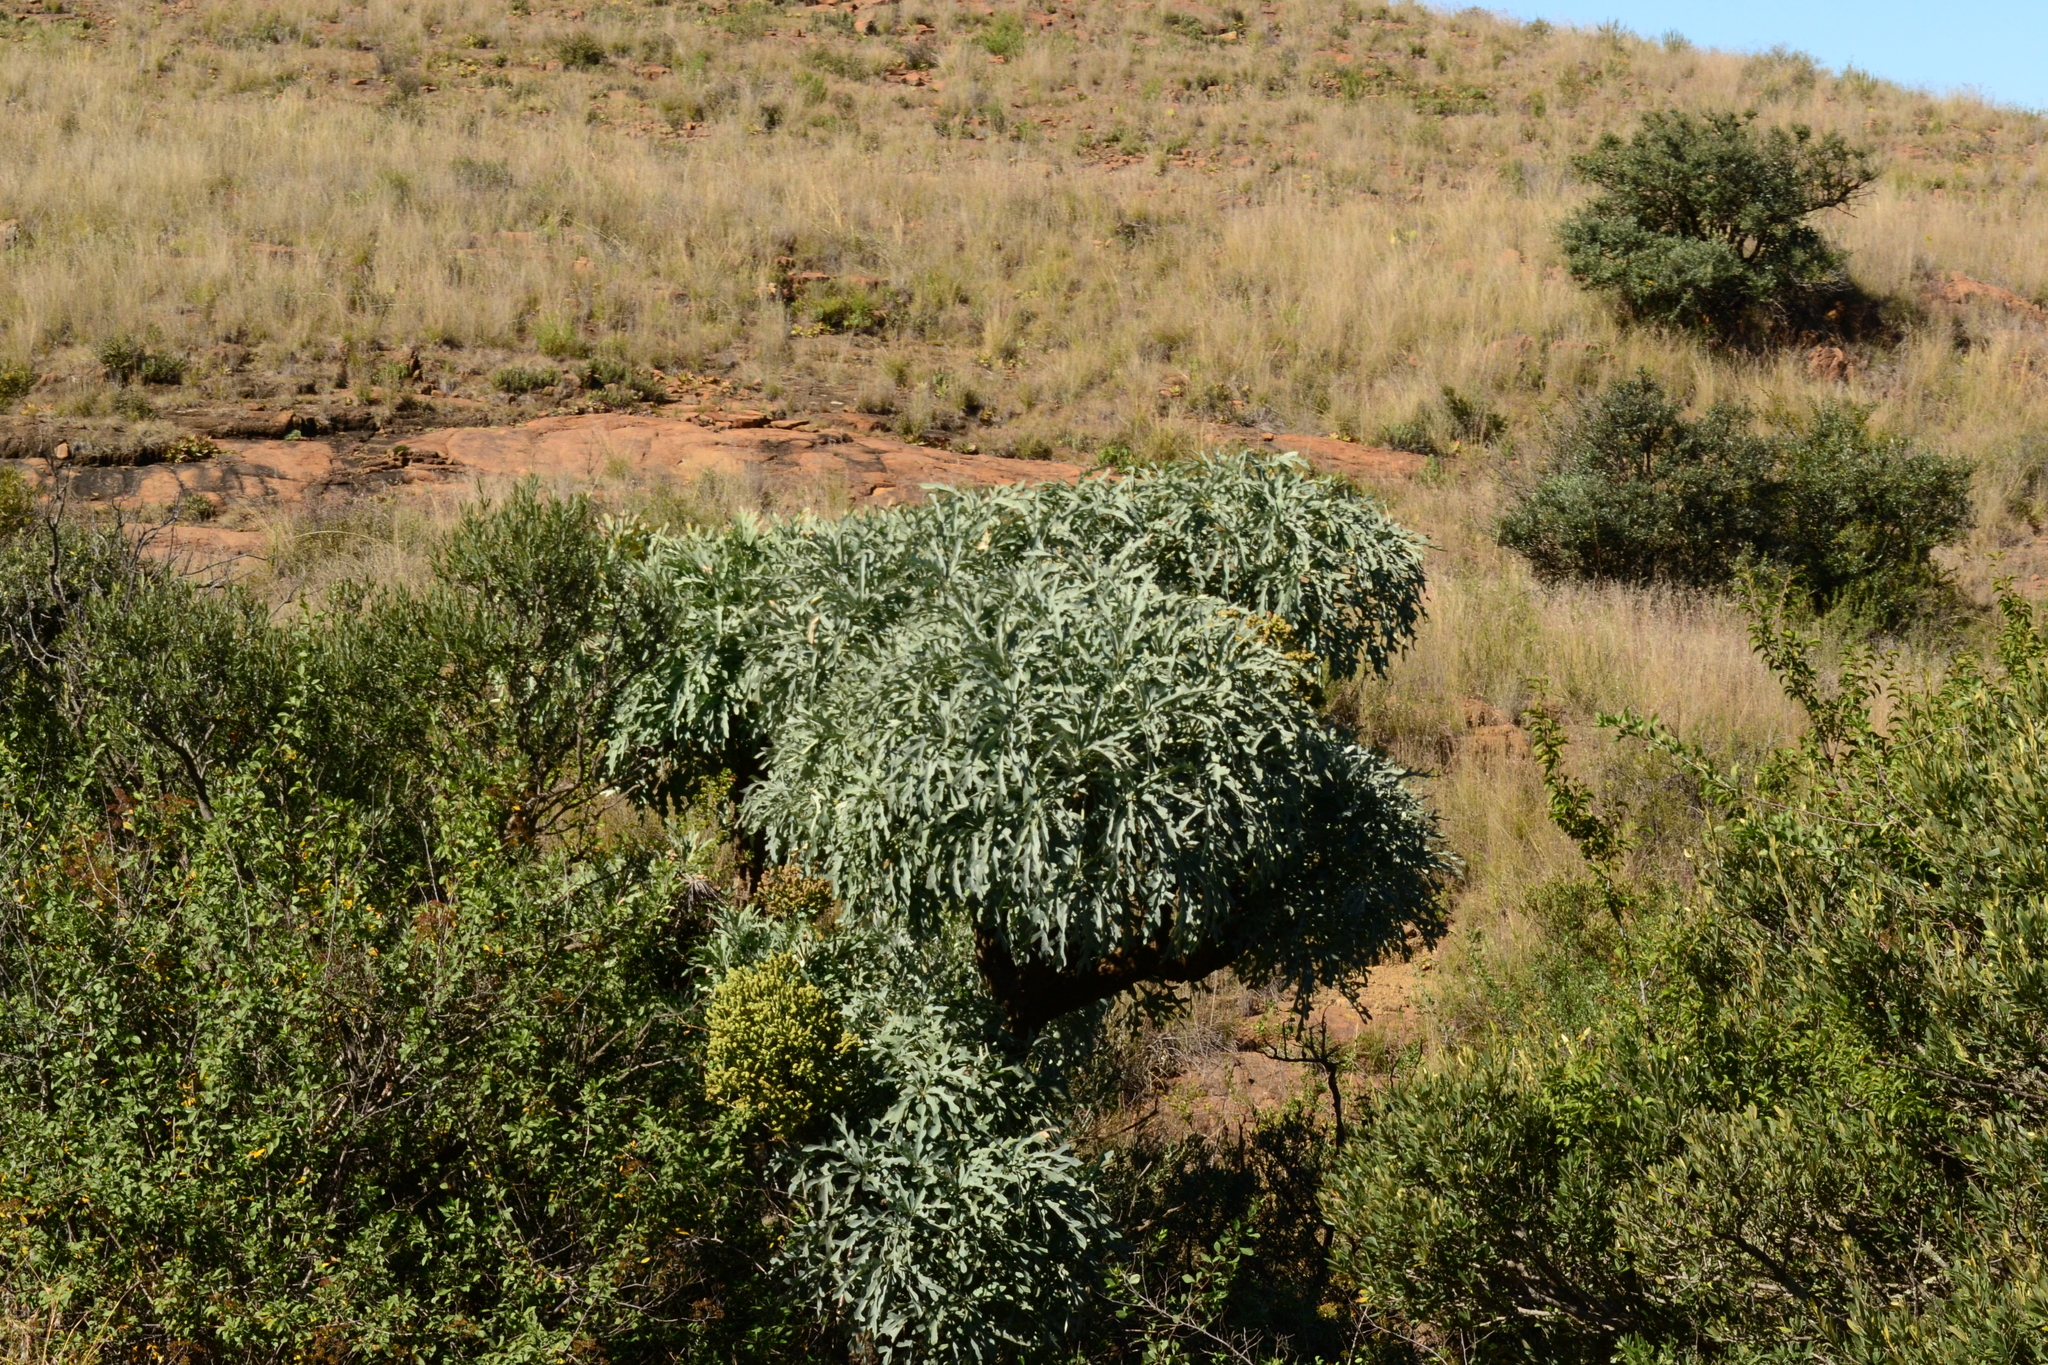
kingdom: Plantae
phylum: Tracheophyta
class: Magnoliopsida
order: Apiales
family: Araliaceae
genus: Cussonia
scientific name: Cussonia paniculata
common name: Cabbagetree
